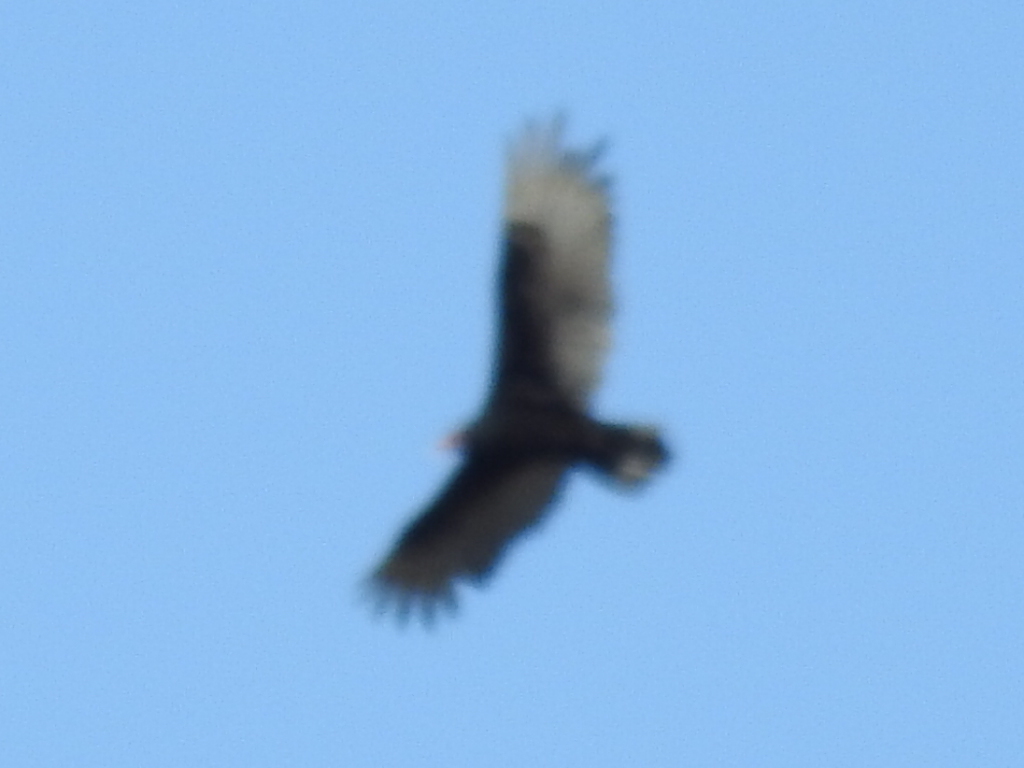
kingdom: Animalia
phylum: Chordata
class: Aves
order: Accipitriformes
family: Cathartidae
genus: Cathartes
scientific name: Cathartes aura
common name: Turkey vulture
